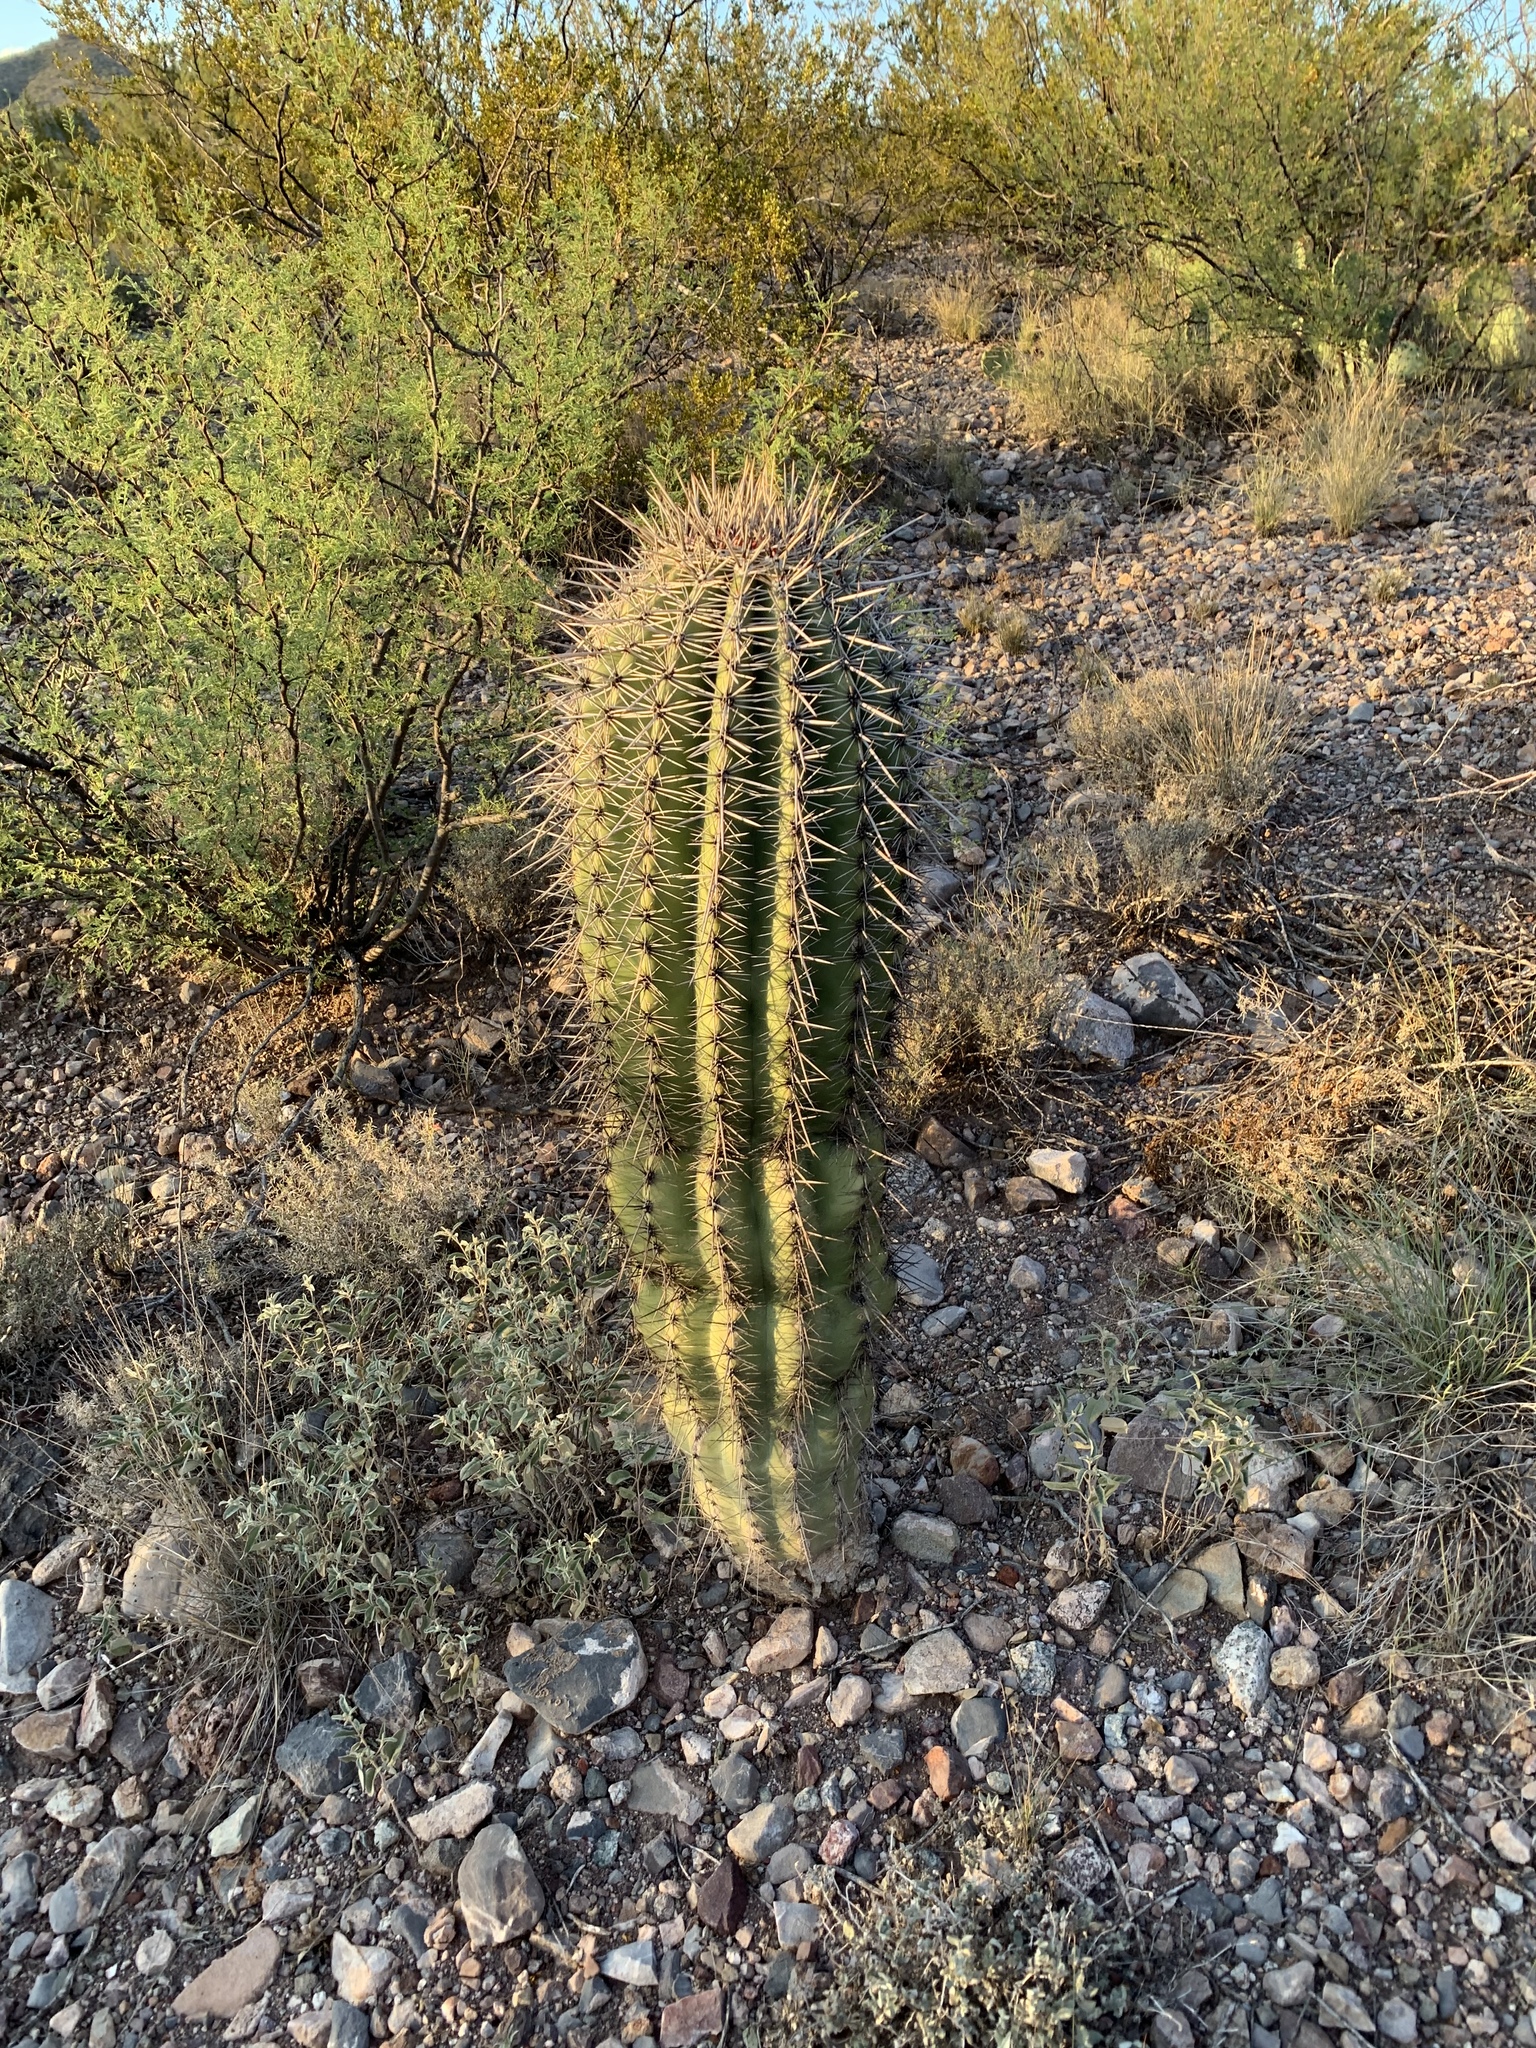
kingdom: Plantae
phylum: Tracheophyta
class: Magnoliopsida
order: Caryophyllales
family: Cactaceae
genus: Carnegiea
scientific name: Carnegiea gigantea
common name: Saguaro
